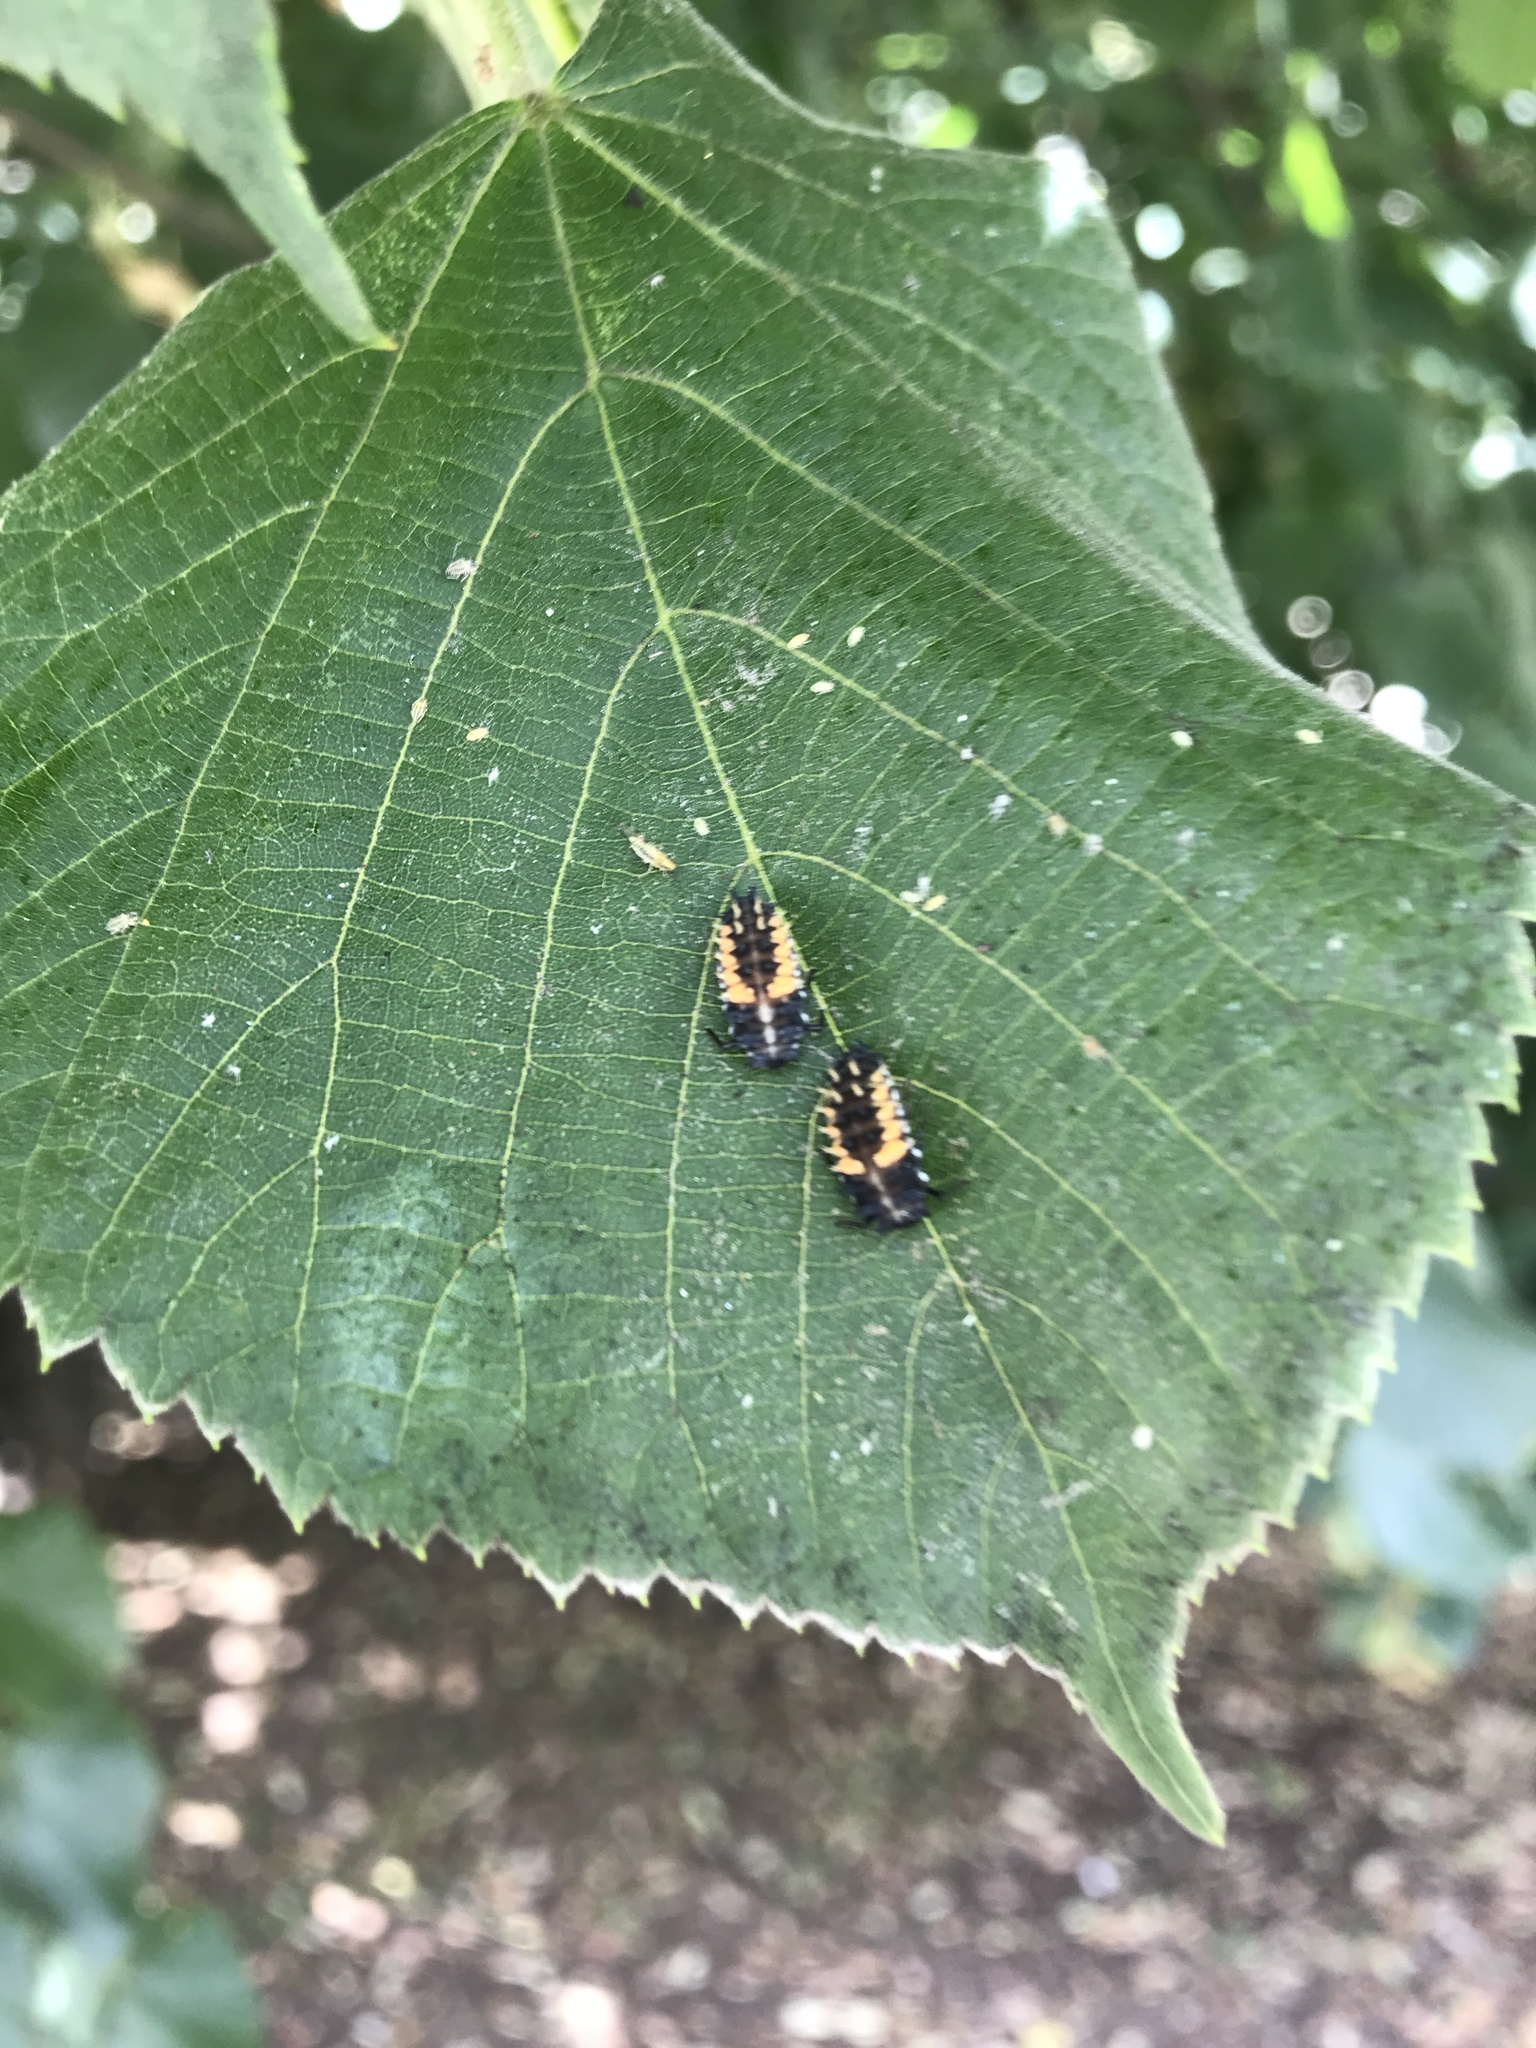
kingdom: Animalia
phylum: Arthropoda
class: Insecta
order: Coleoptera
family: Coccinellidae
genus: Harmonia
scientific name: Harmonia axyridis
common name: Harlequin ladybird
